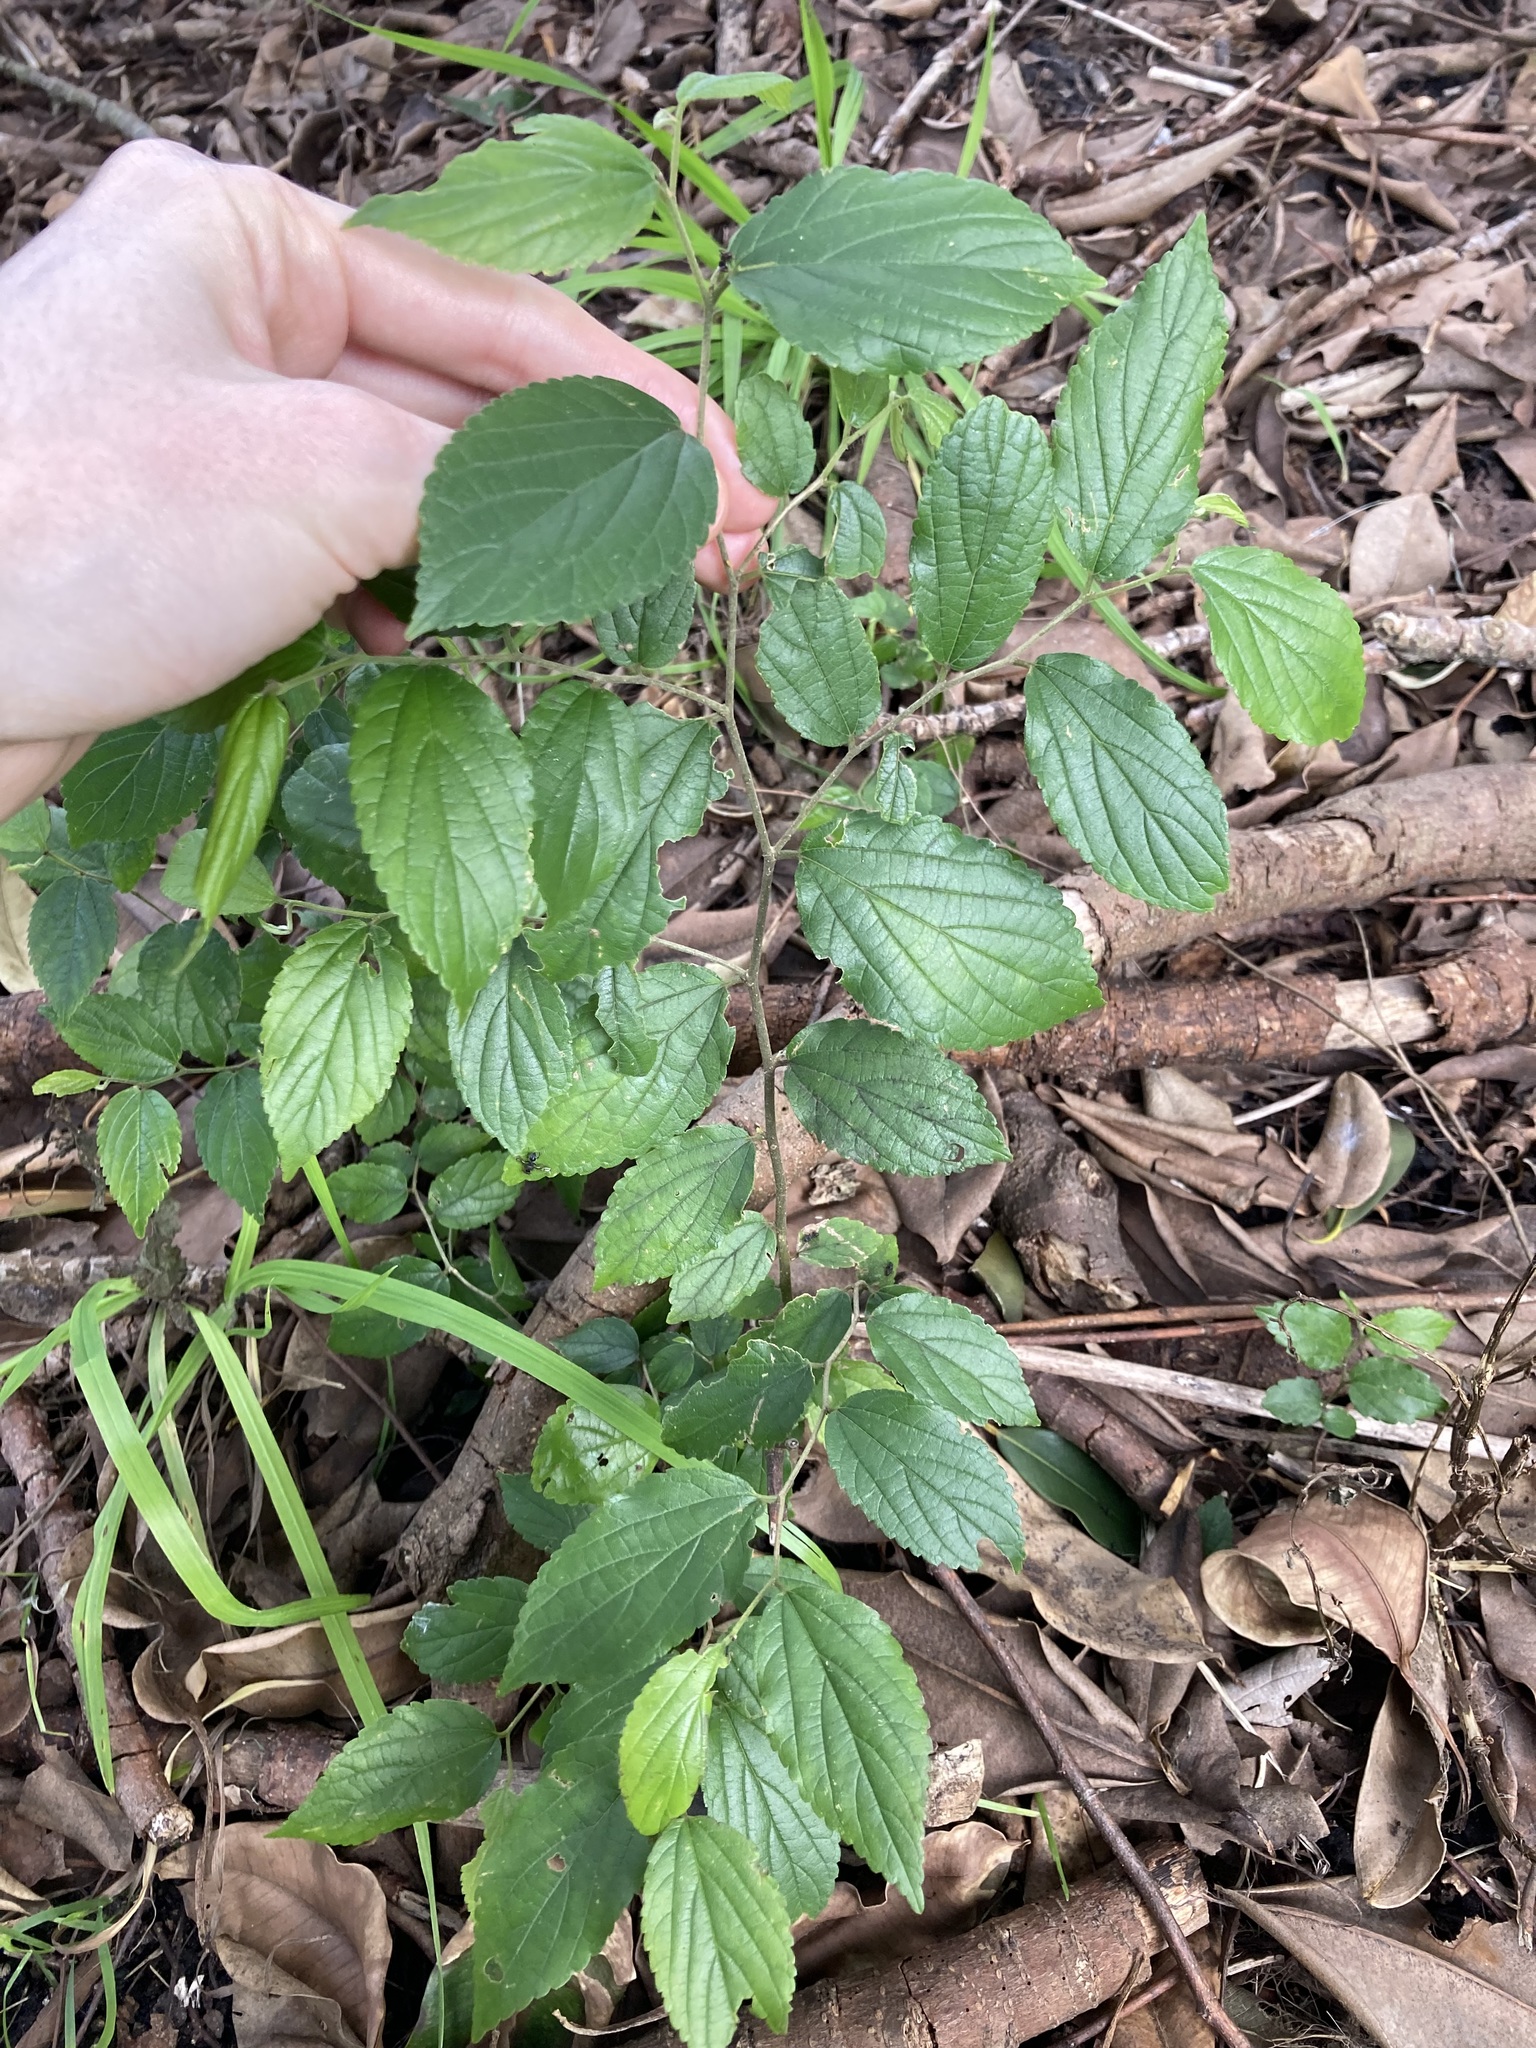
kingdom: Plantae
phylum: Tracheophyta
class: Magnoliopsida
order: Rosales
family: Cannabaceae
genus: Celtis
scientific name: Celtis sinensis
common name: Chinese hackberry
